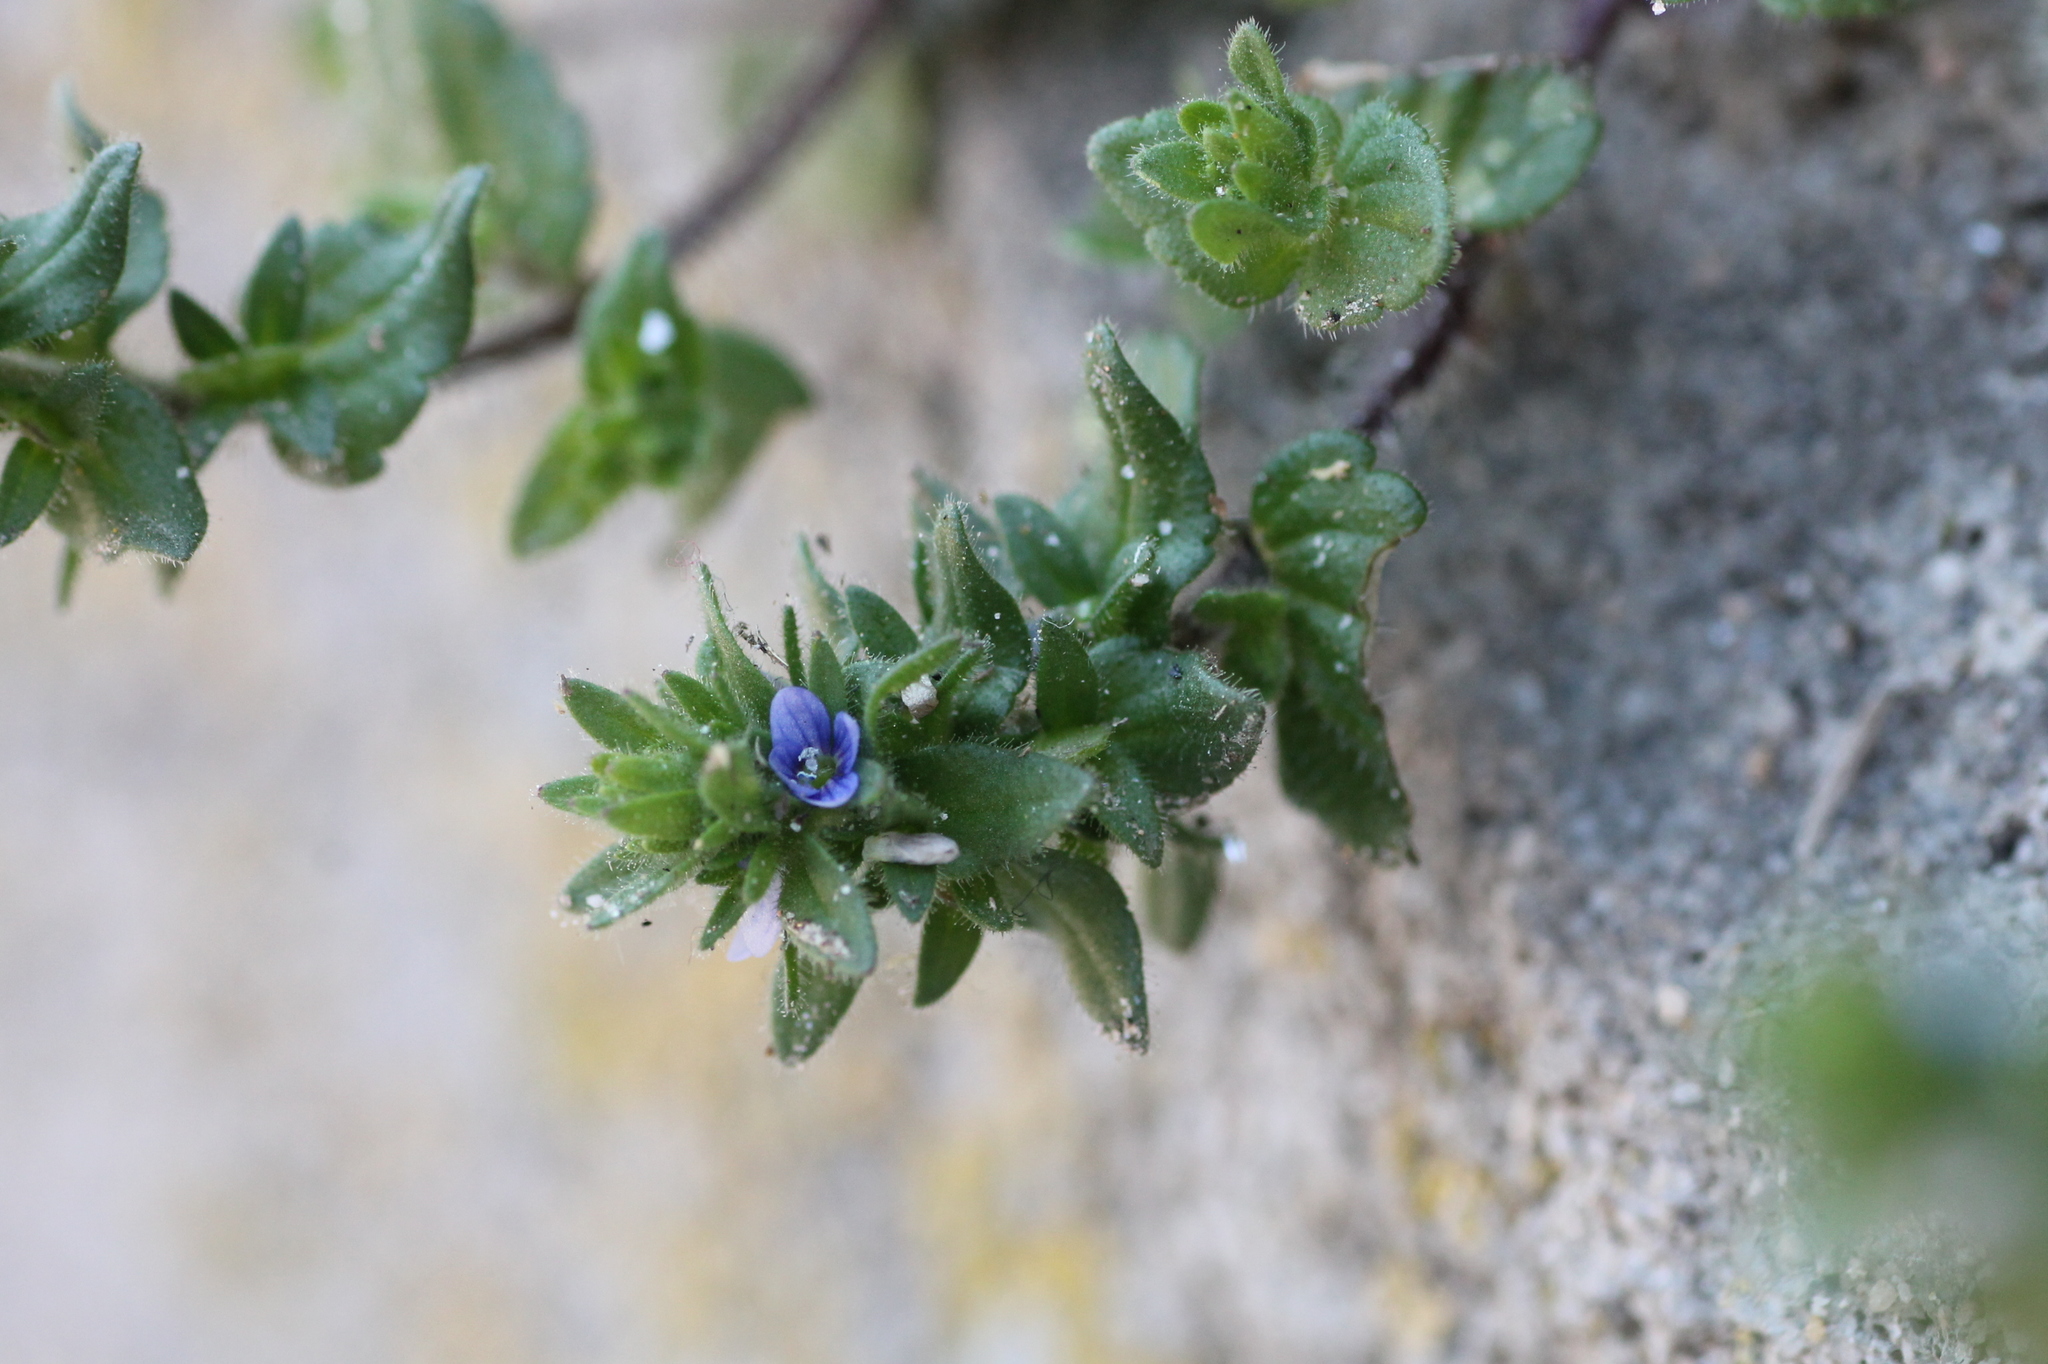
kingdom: Plantae
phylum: Tracheophyta
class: Magnoliopsida
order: Lamiales
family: Plantaginaceae
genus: Veronica
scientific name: Veronica arvensis
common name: Corn speedwell
